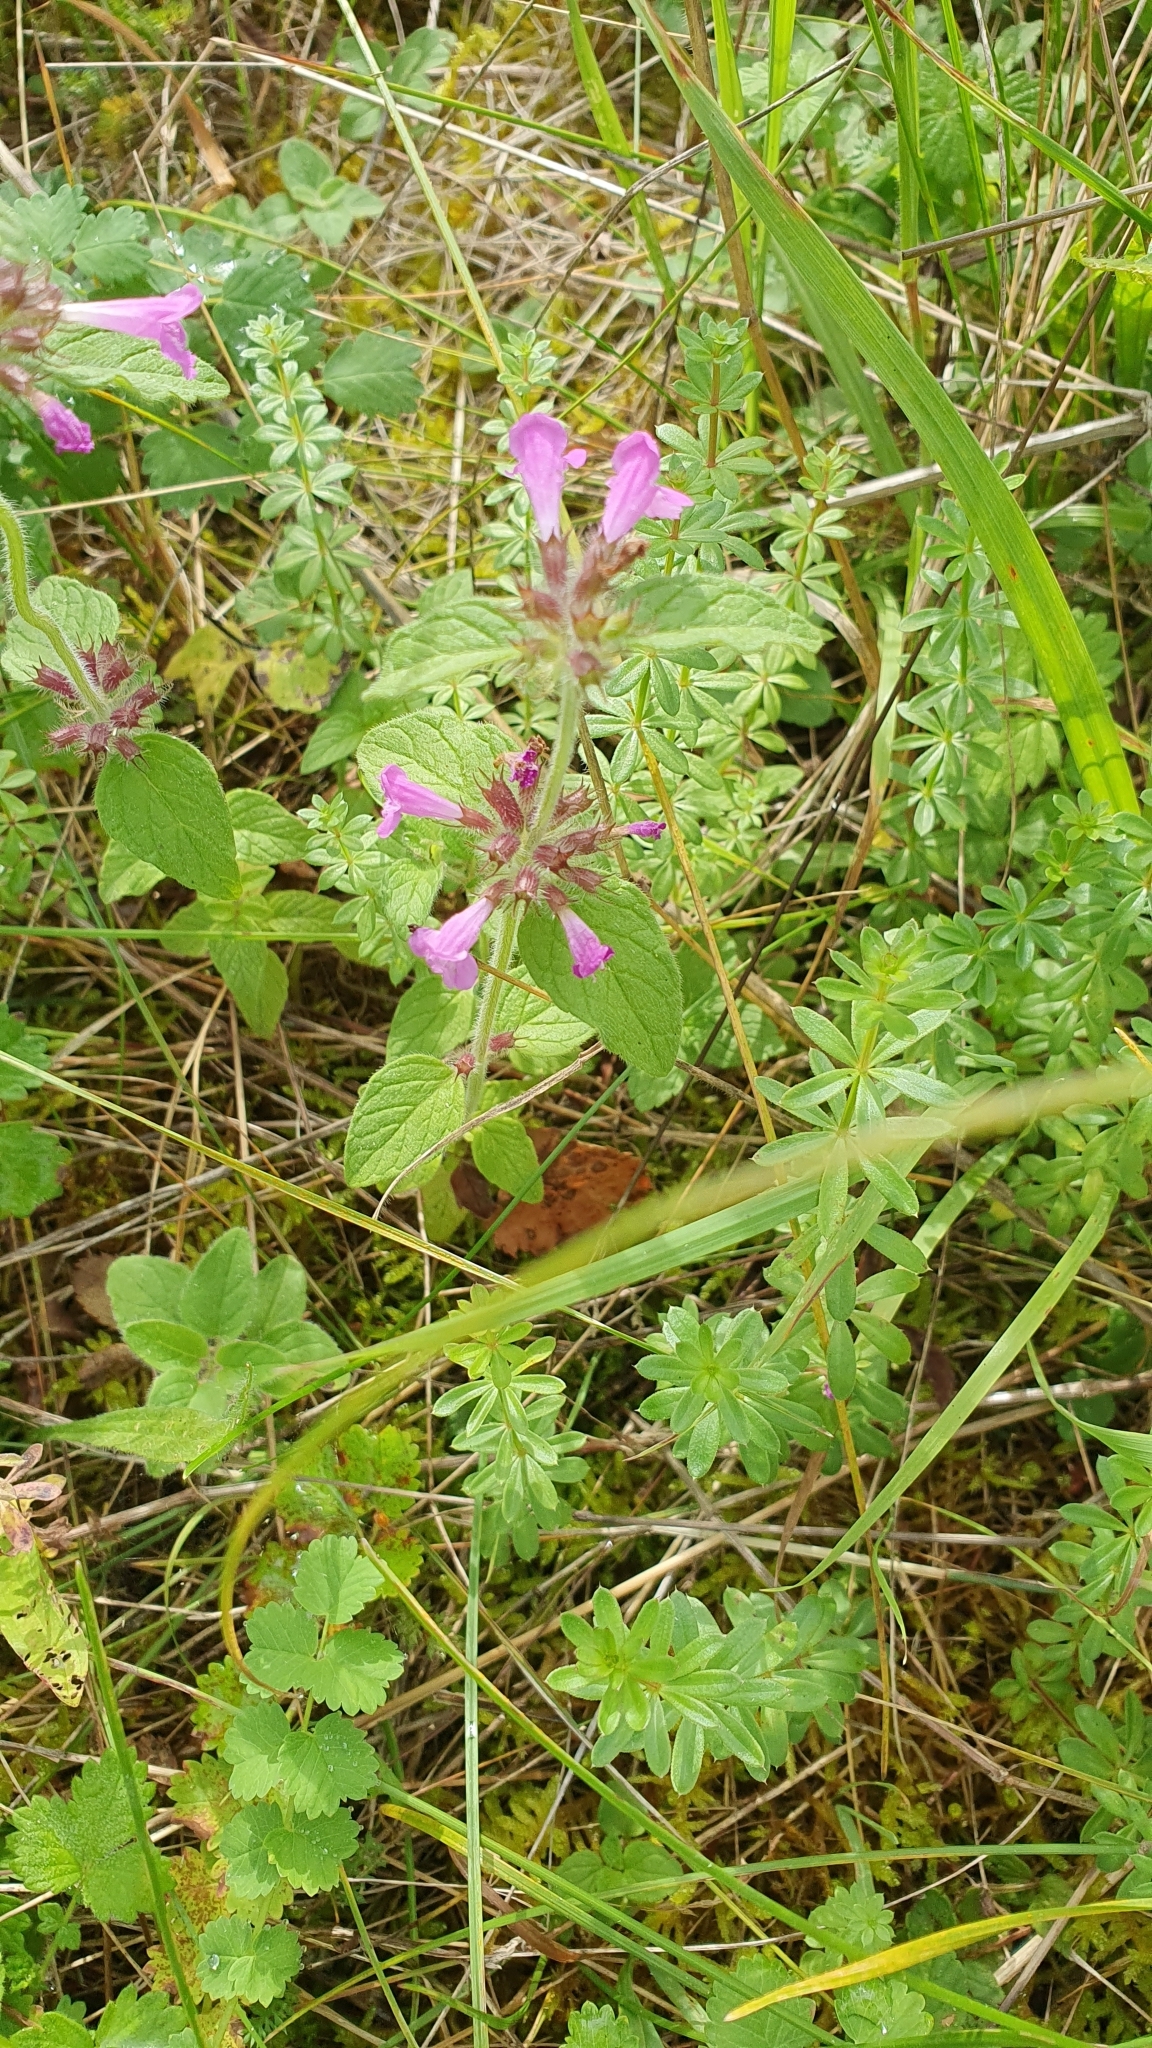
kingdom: Plantae
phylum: Tracheophyta
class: Magnoliopsida
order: Lamiales
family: Lamiaceae
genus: Clinopodium
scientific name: Clinopodium vulgare
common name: Wild basil
